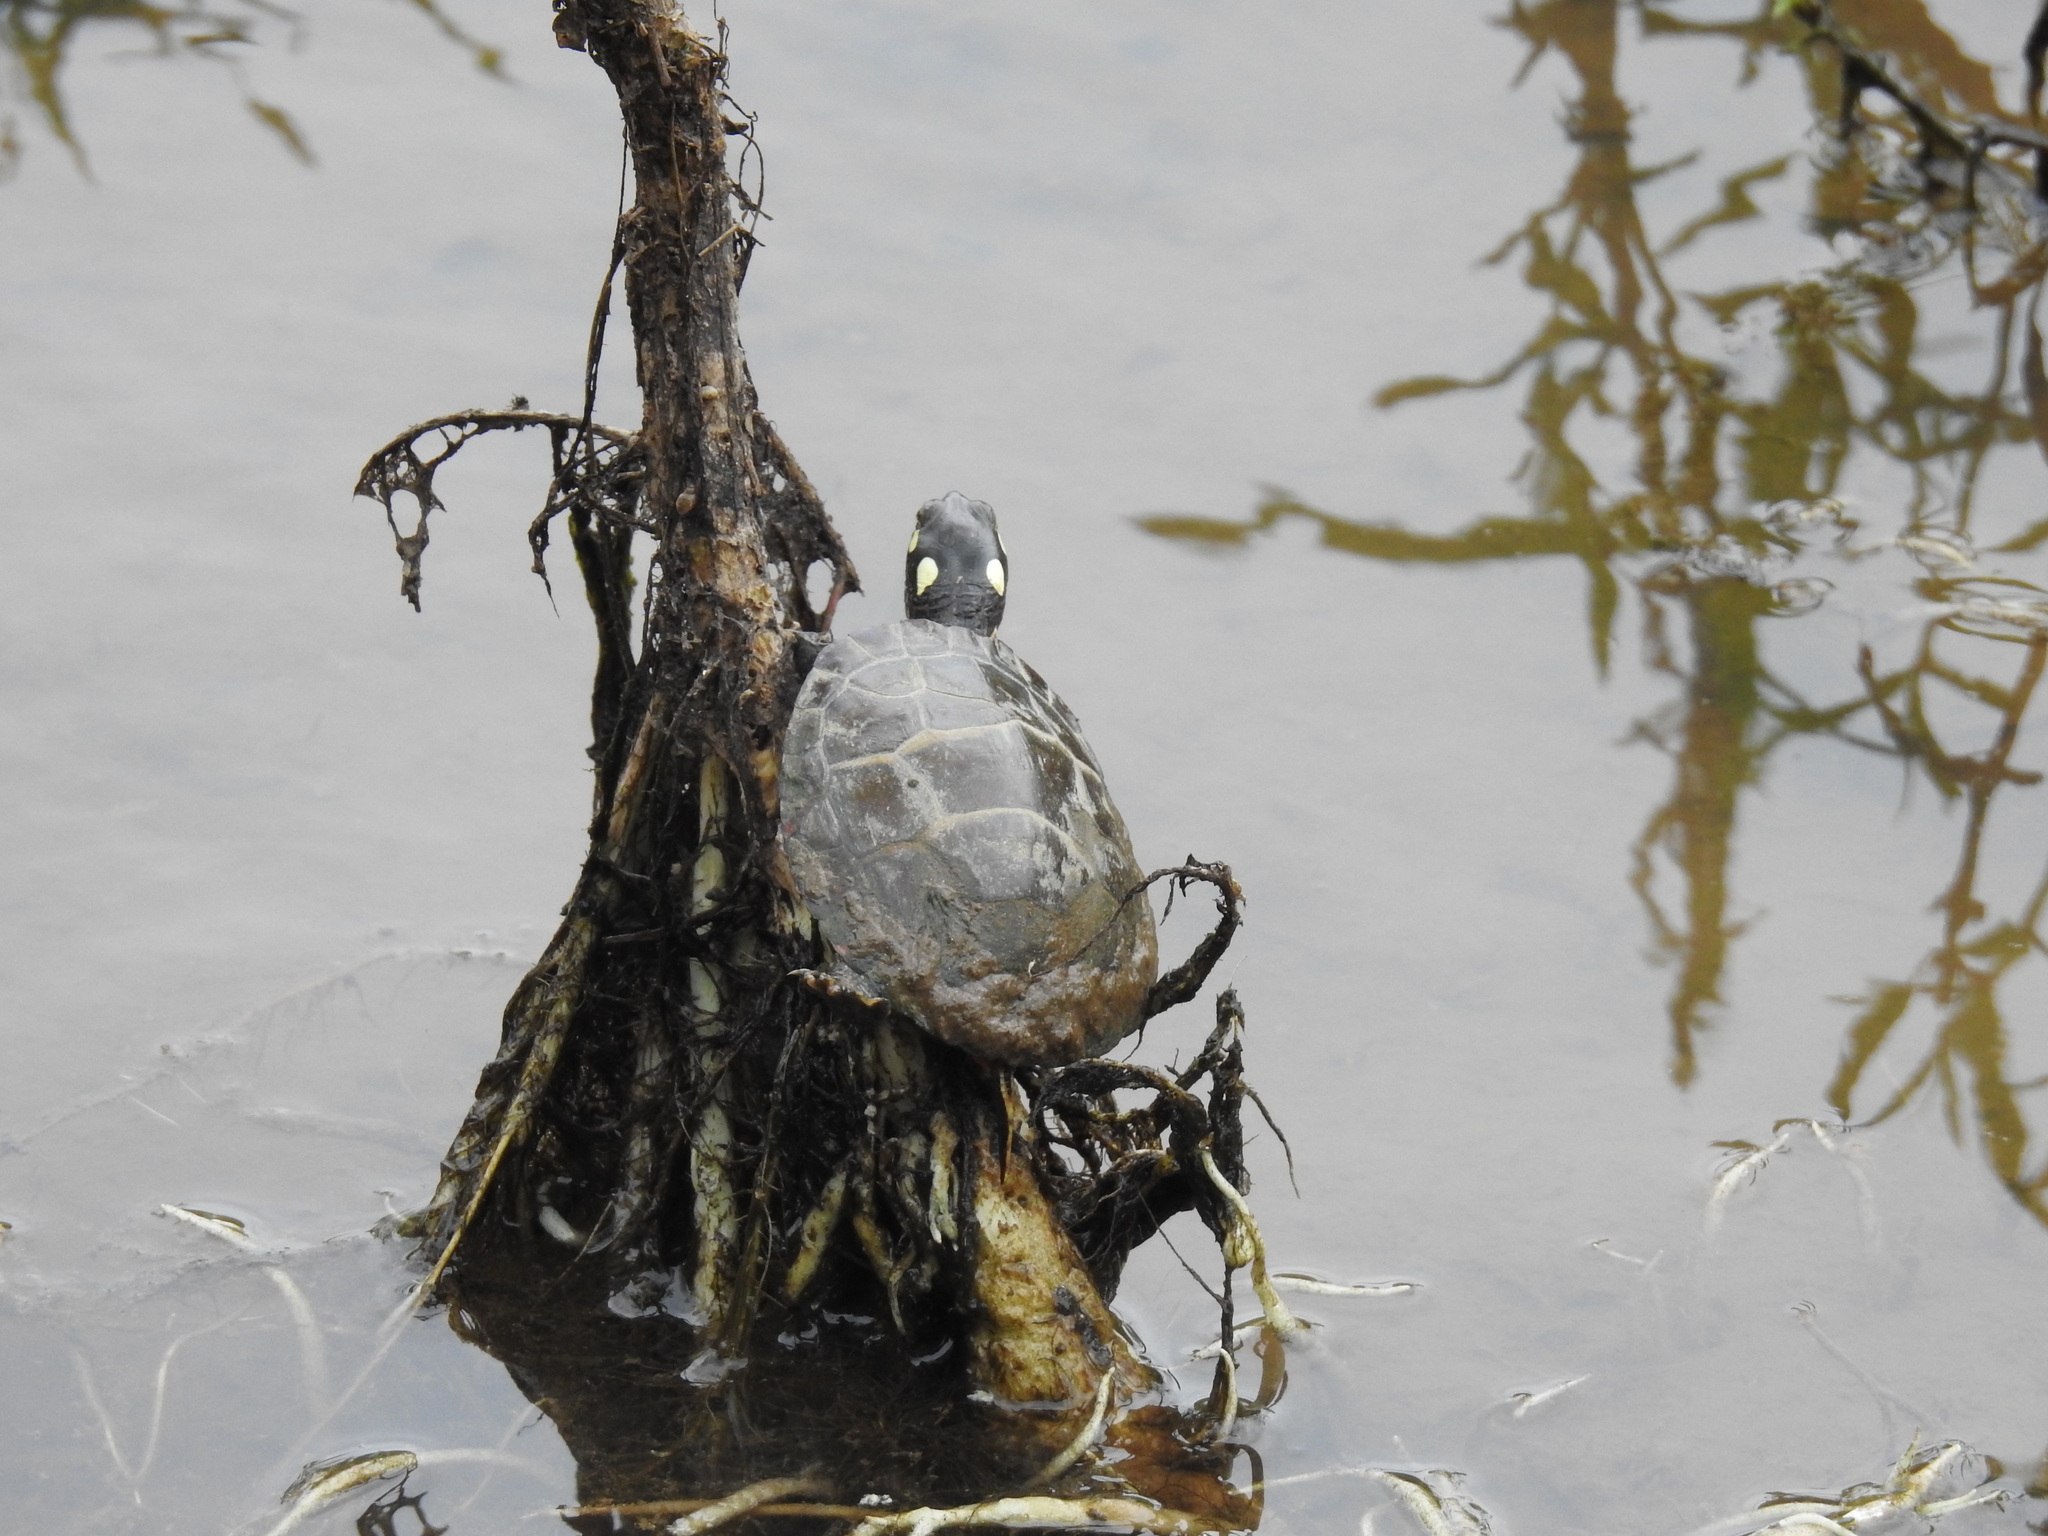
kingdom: Animalia
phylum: Chordata
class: Testudines
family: Emydidae
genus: Chrysemys
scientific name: Chrysemys picta
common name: Painted turtle
